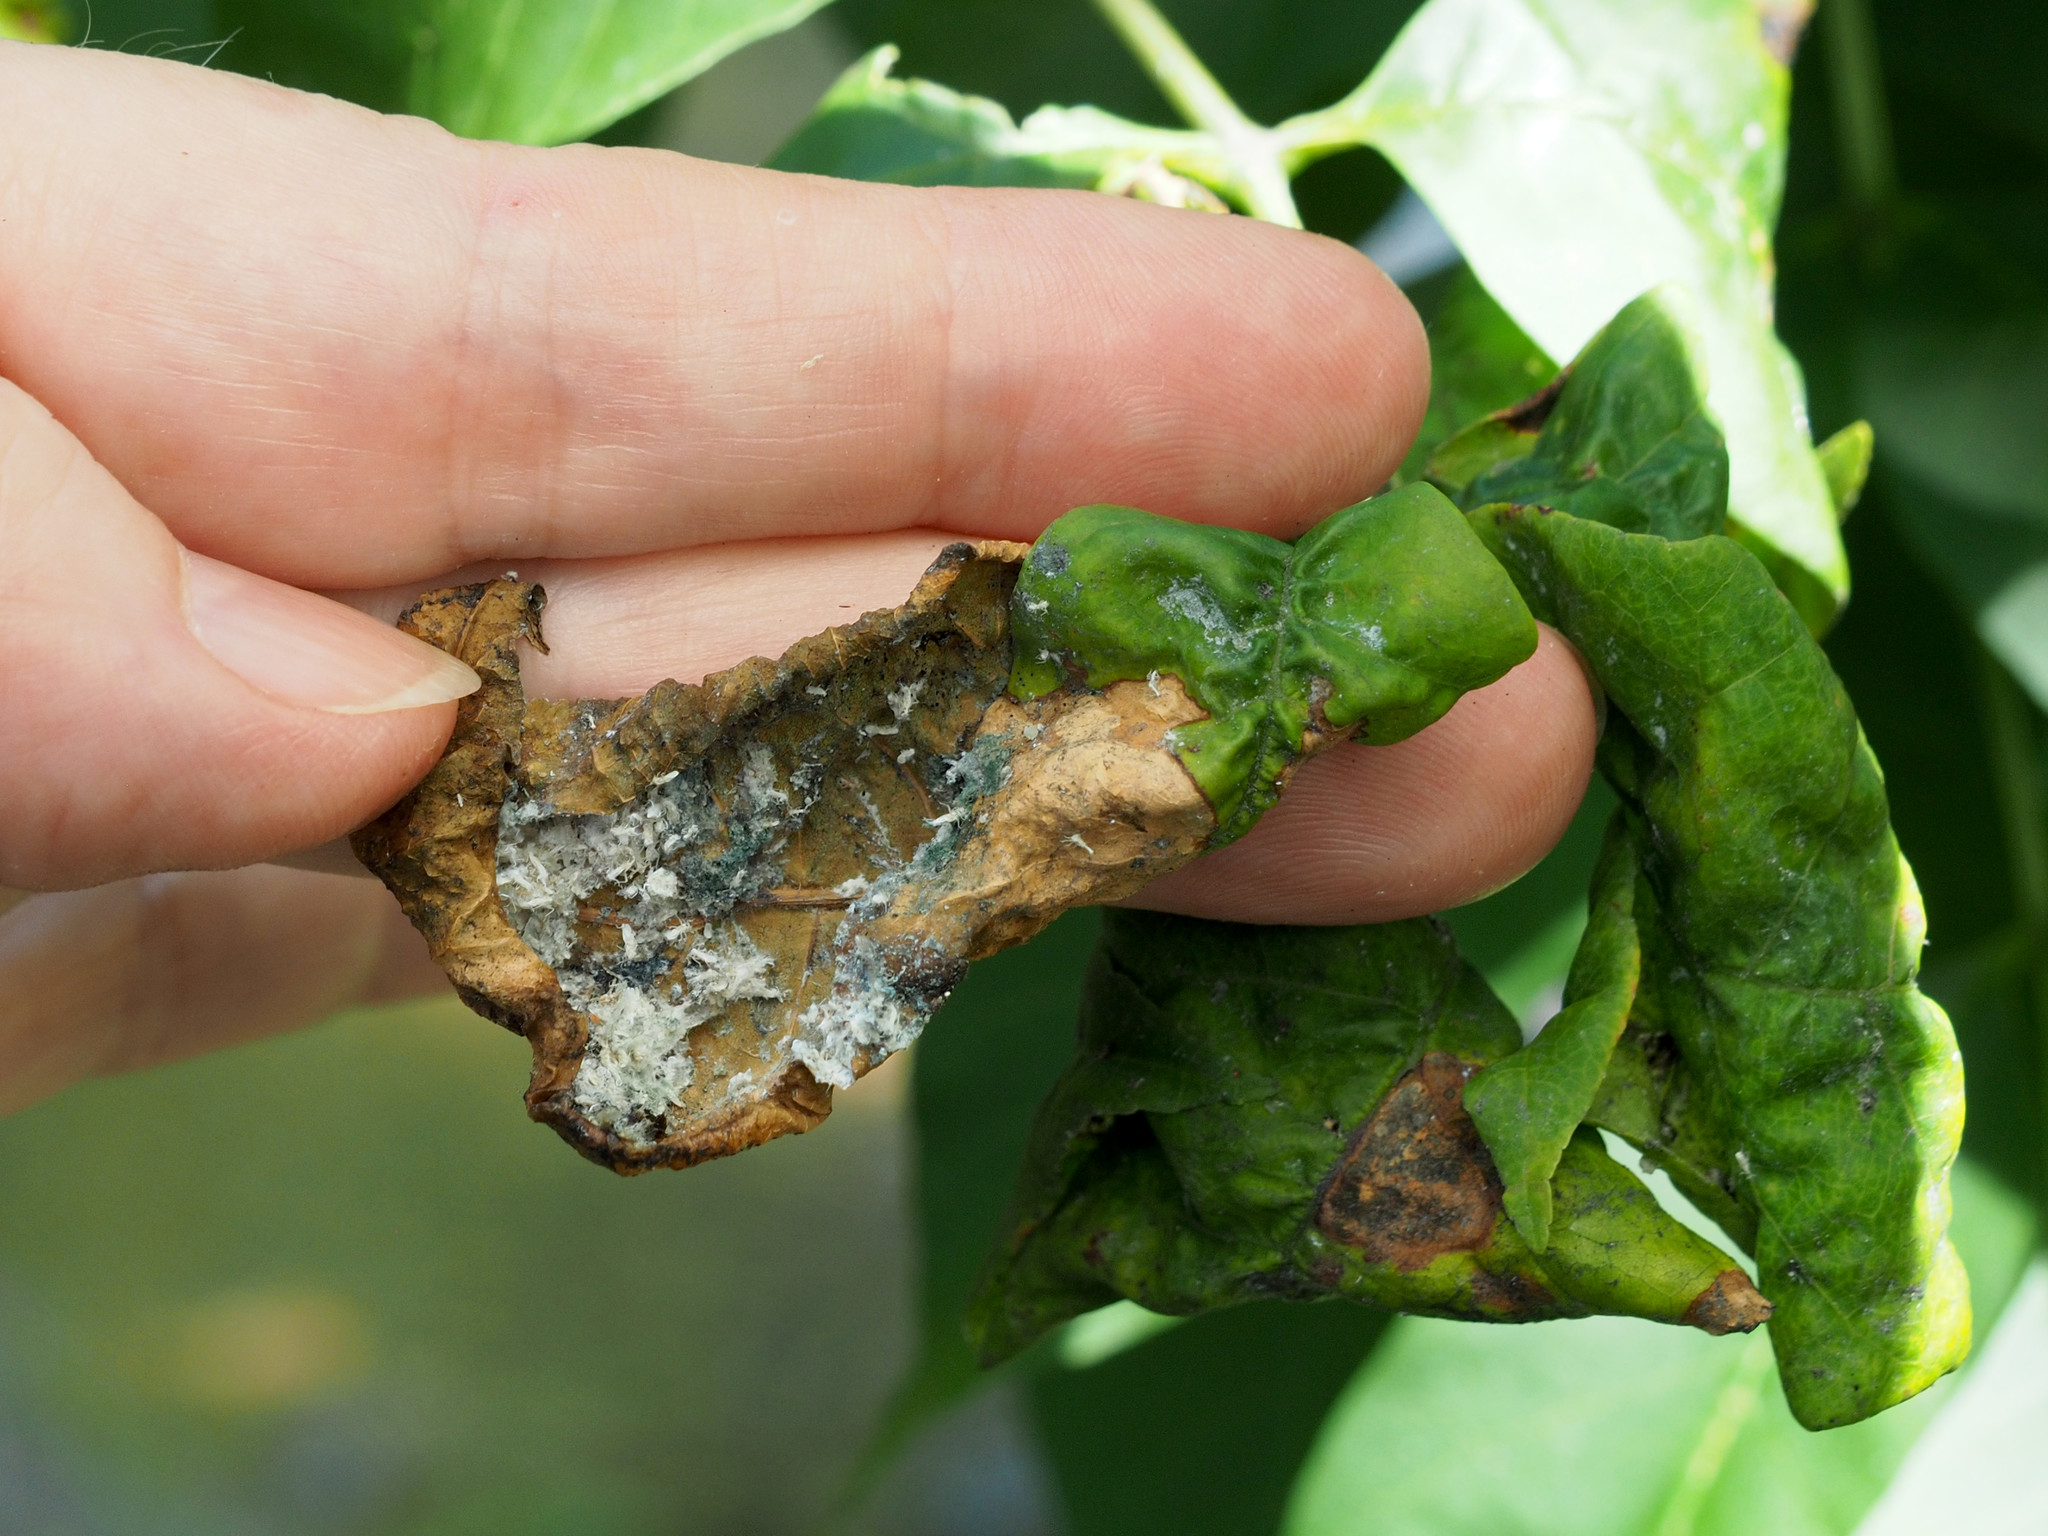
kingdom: Animalia
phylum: Arthropoda
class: Insecta
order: Hemiptera
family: Aphididae
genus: Prociphilus
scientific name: Prociphilus fraxinifolii
